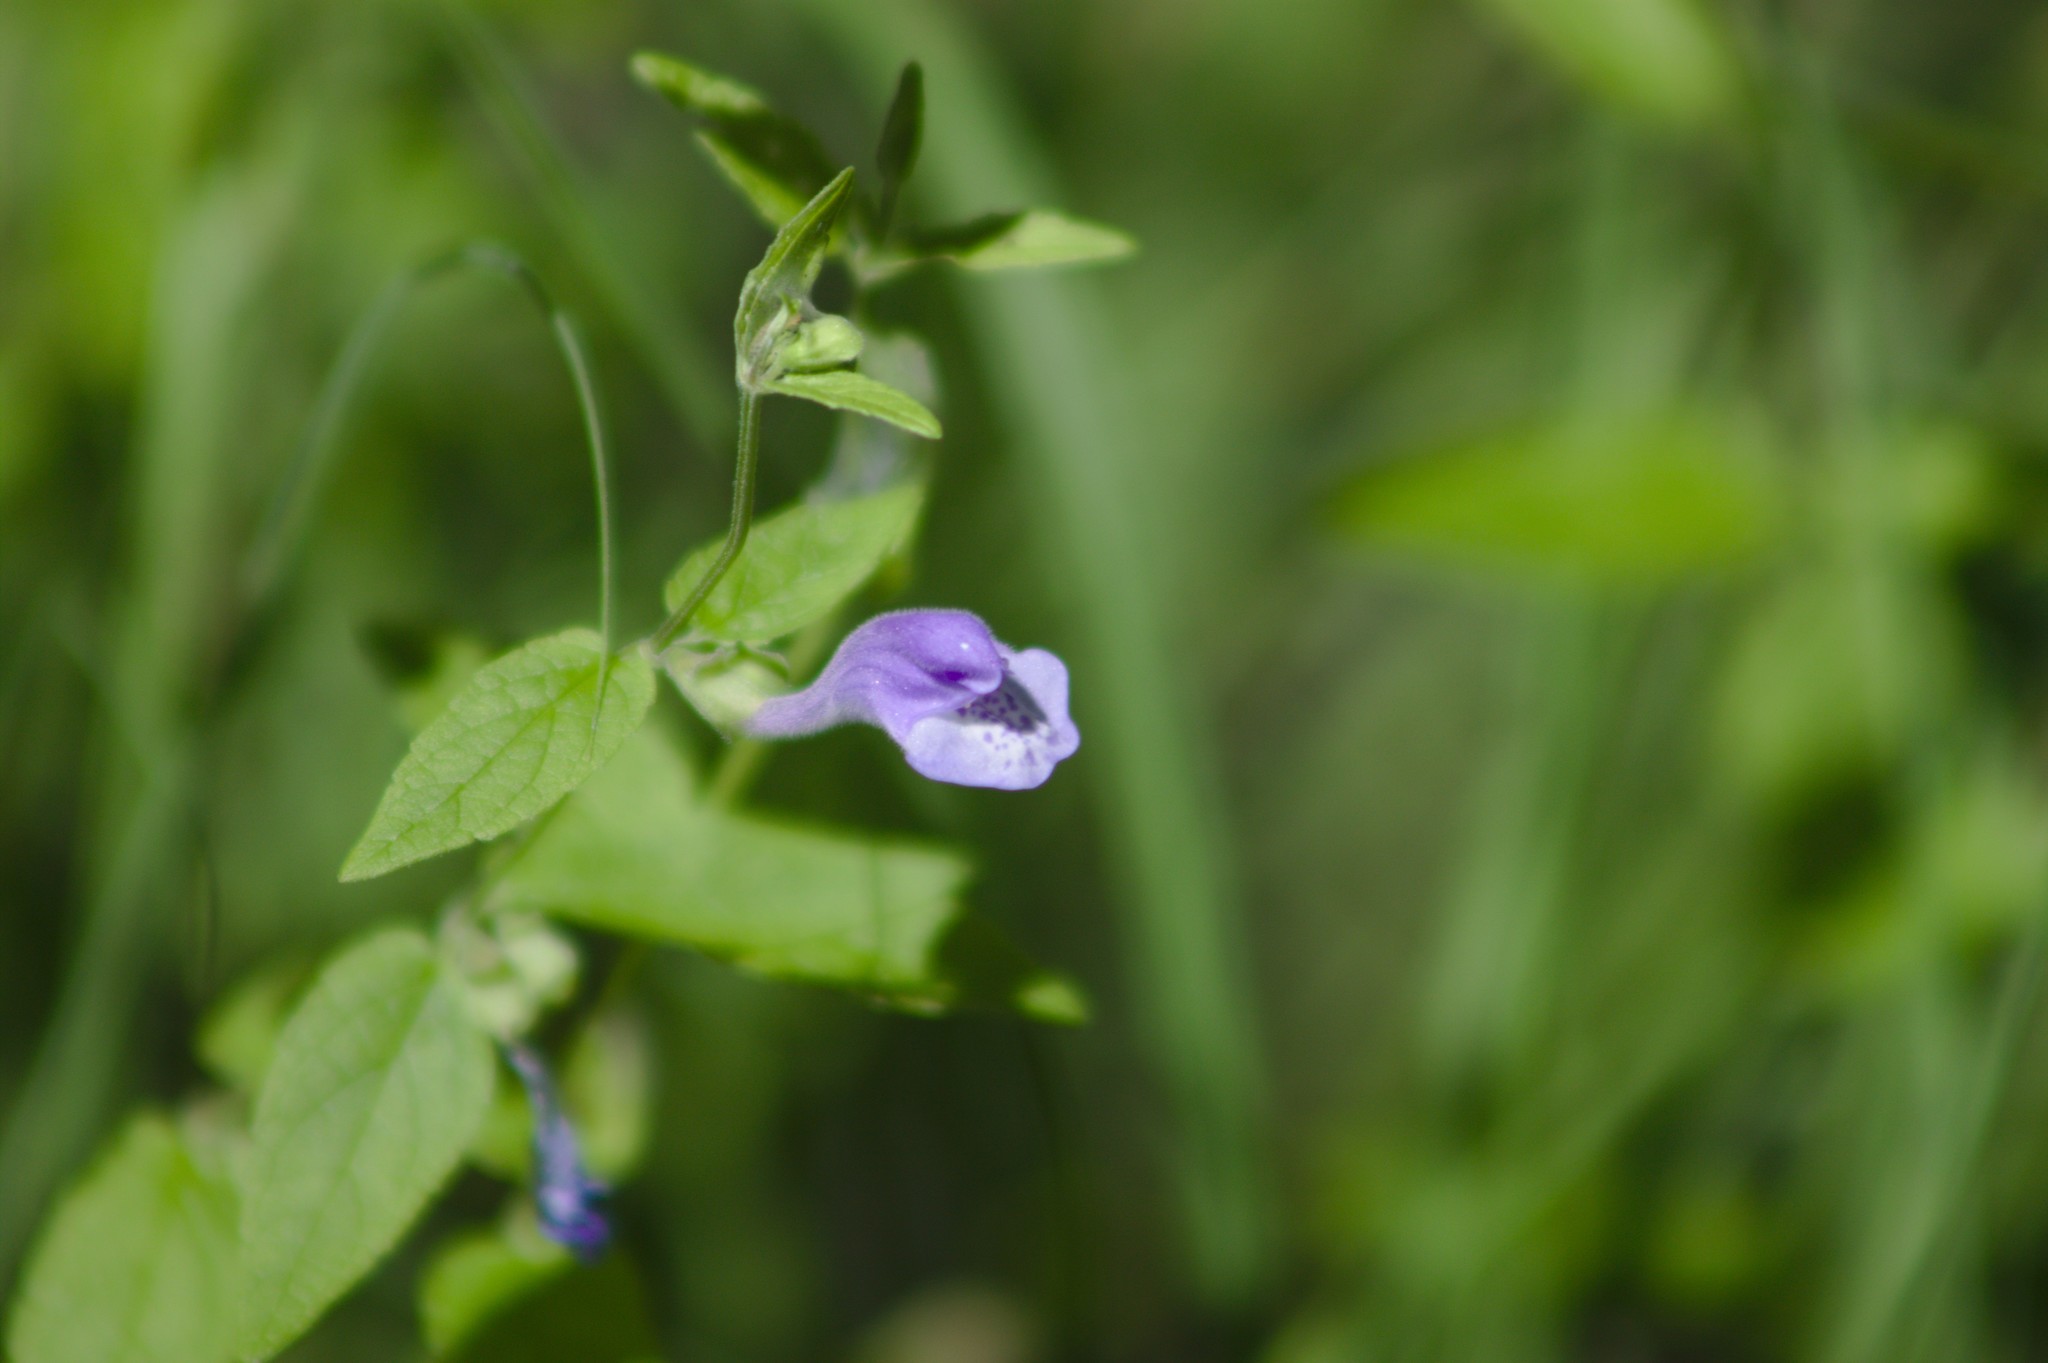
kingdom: Plantae
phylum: Tracheophyta
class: Magnoliopsida
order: Lamiales
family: Lamiaceae
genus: Scutellaria
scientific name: Scutellaria galericulata
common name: Skullcap
